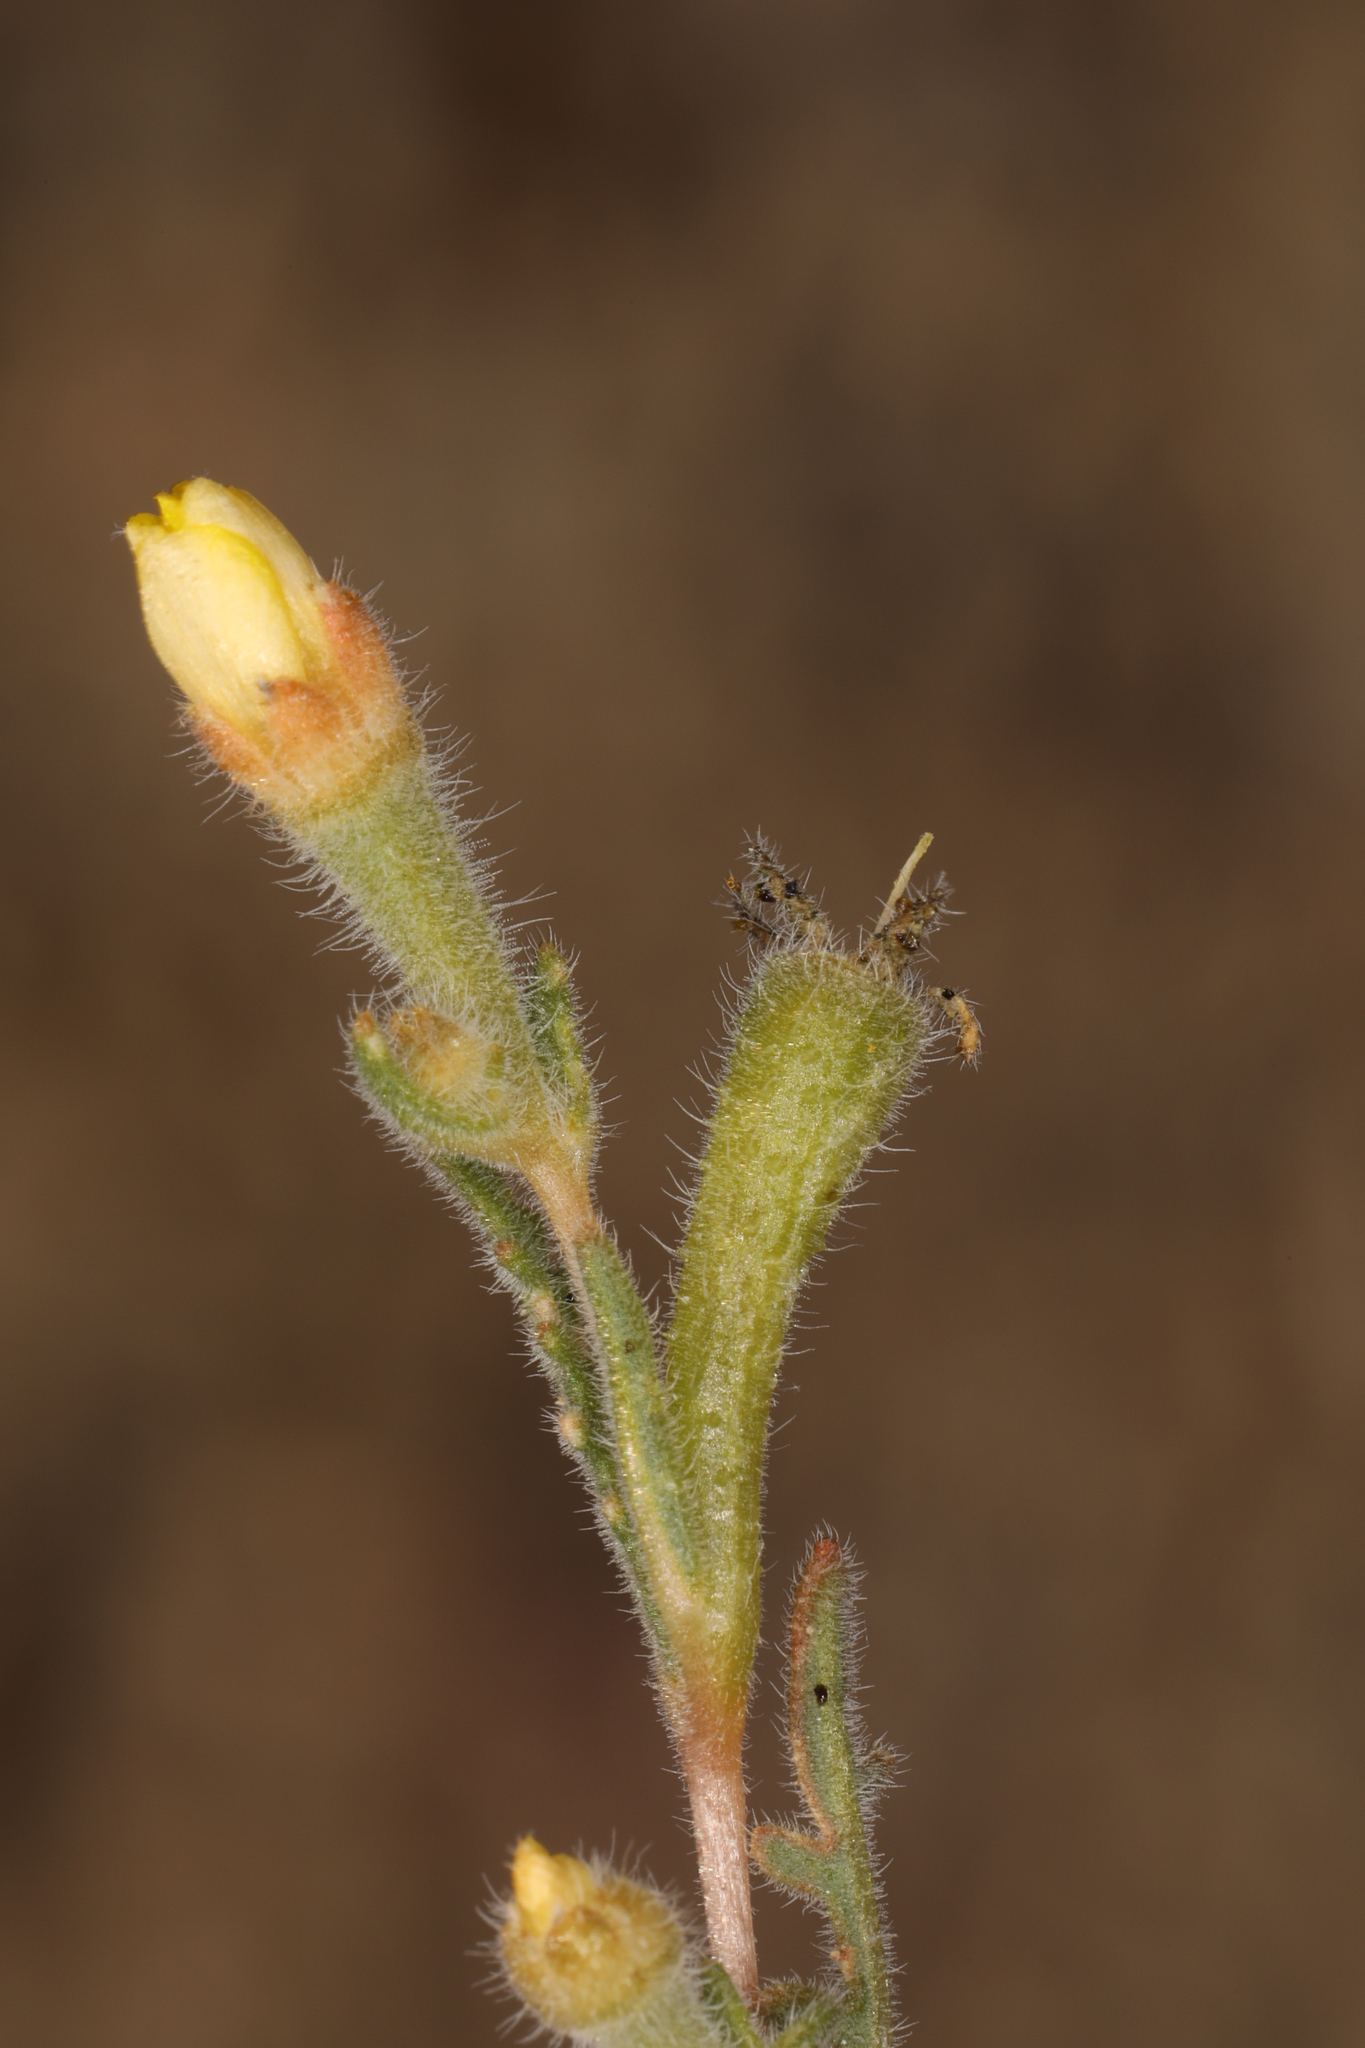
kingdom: Plantae
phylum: Tracheophyta
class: Magnoliopsida
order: Cornales
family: Loasaceae
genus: Mentzelia
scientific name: Mentzelia albicaulis
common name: White-stem blazingstar
